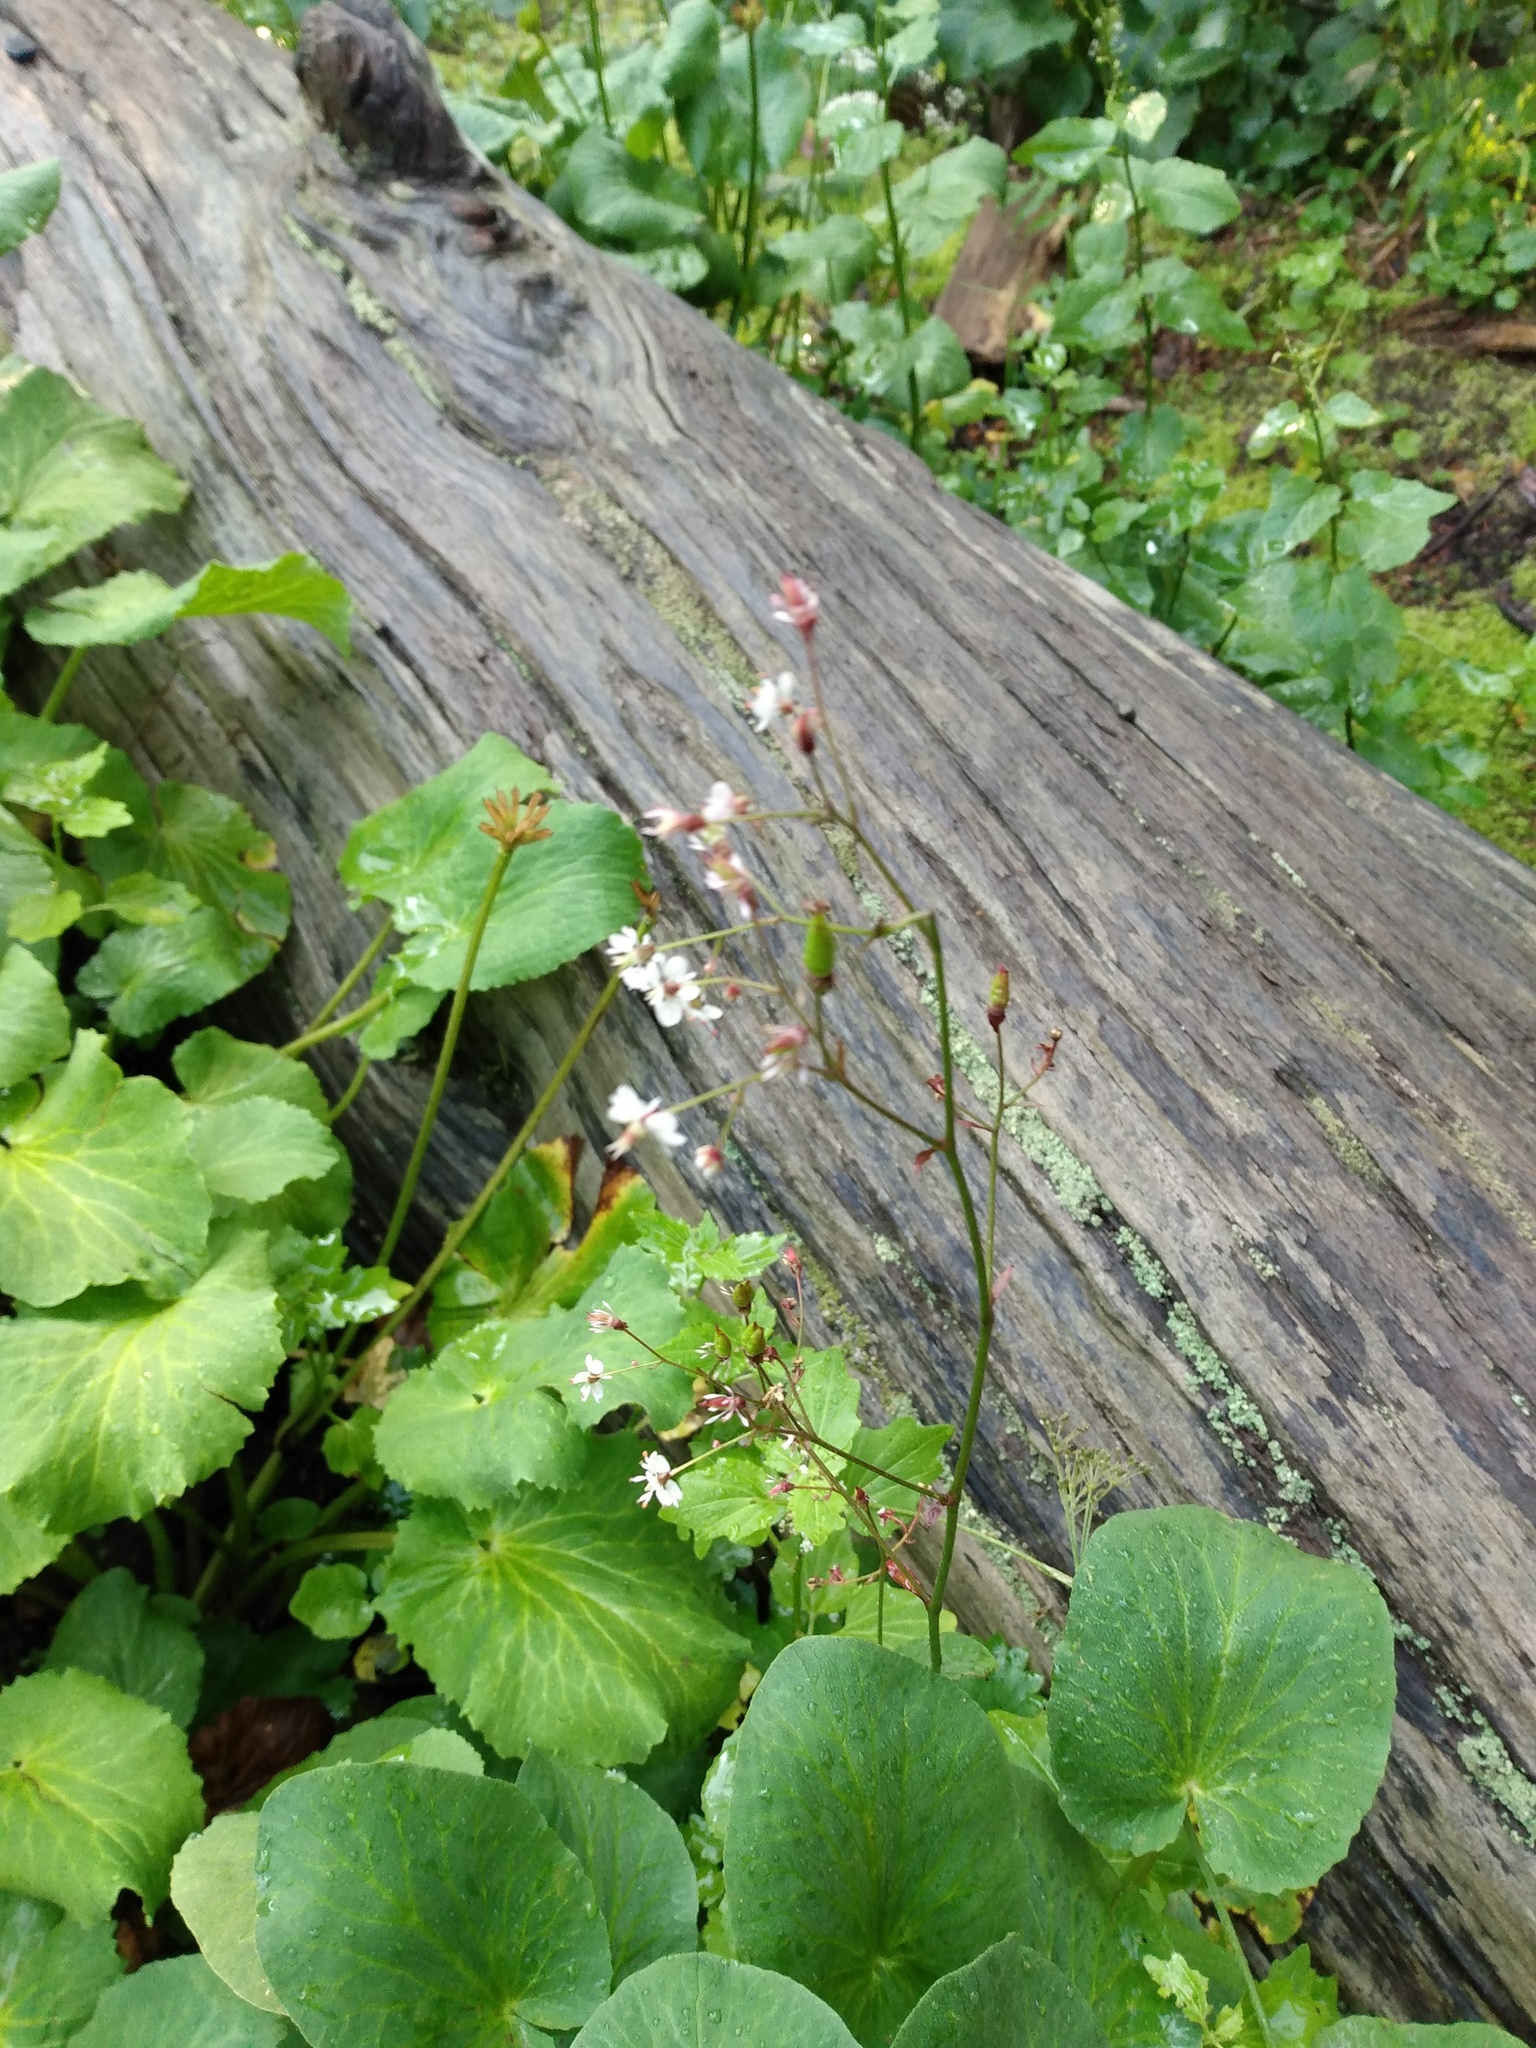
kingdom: Plantae
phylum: Tracheophyta
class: Magnoliopsida
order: Saxifragales
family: Saxifragaceae
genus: Micranthes
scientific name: Micranthes odontoloma
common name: Brook saxifrage
